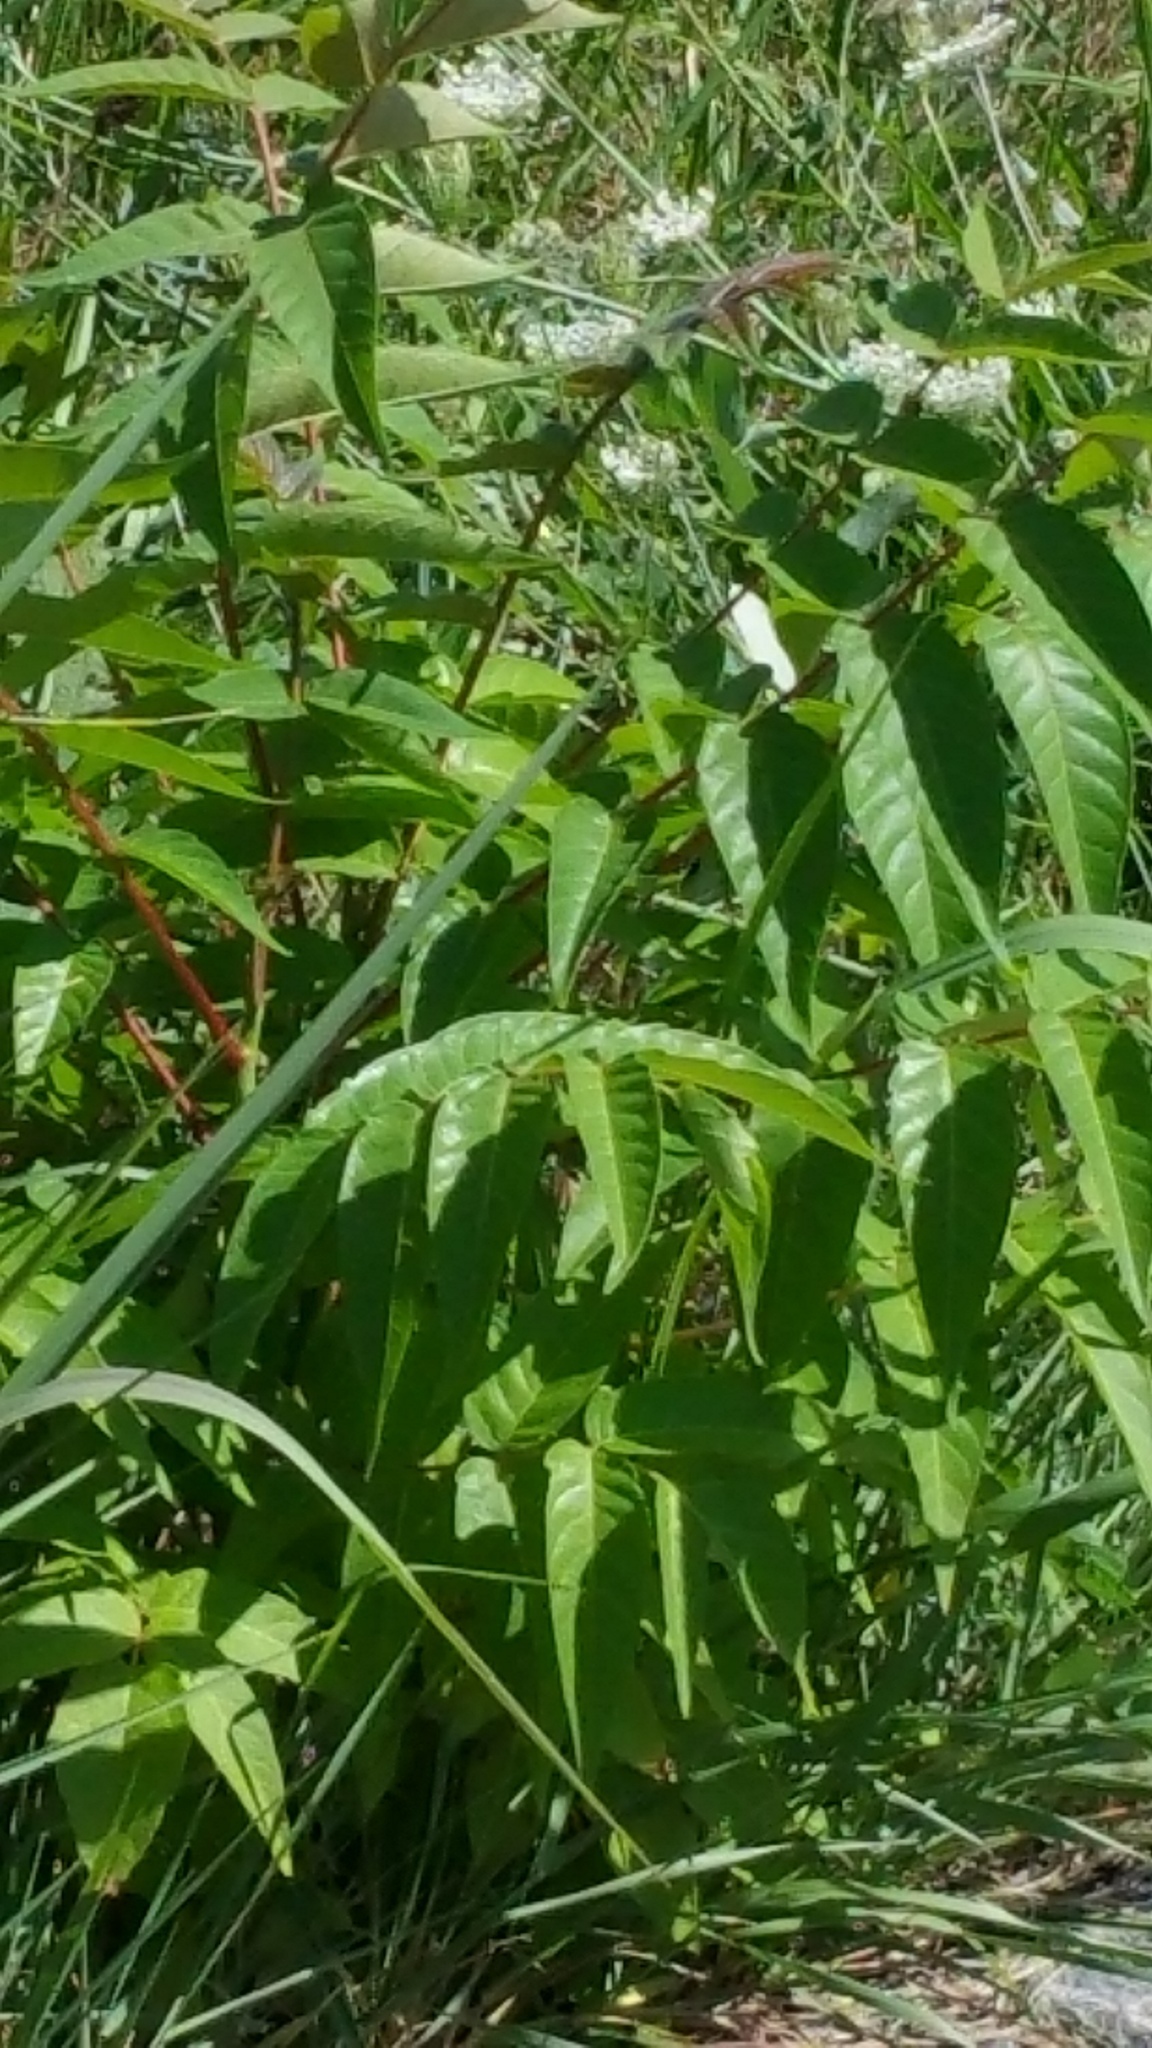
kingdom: Plantae
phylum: Tracheophyta
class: Magnoliopsida
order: Sapindales
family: Simaroubaceae
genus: Ailanthus
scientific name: Ailanthus altissima
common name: Tree-of-heaven
